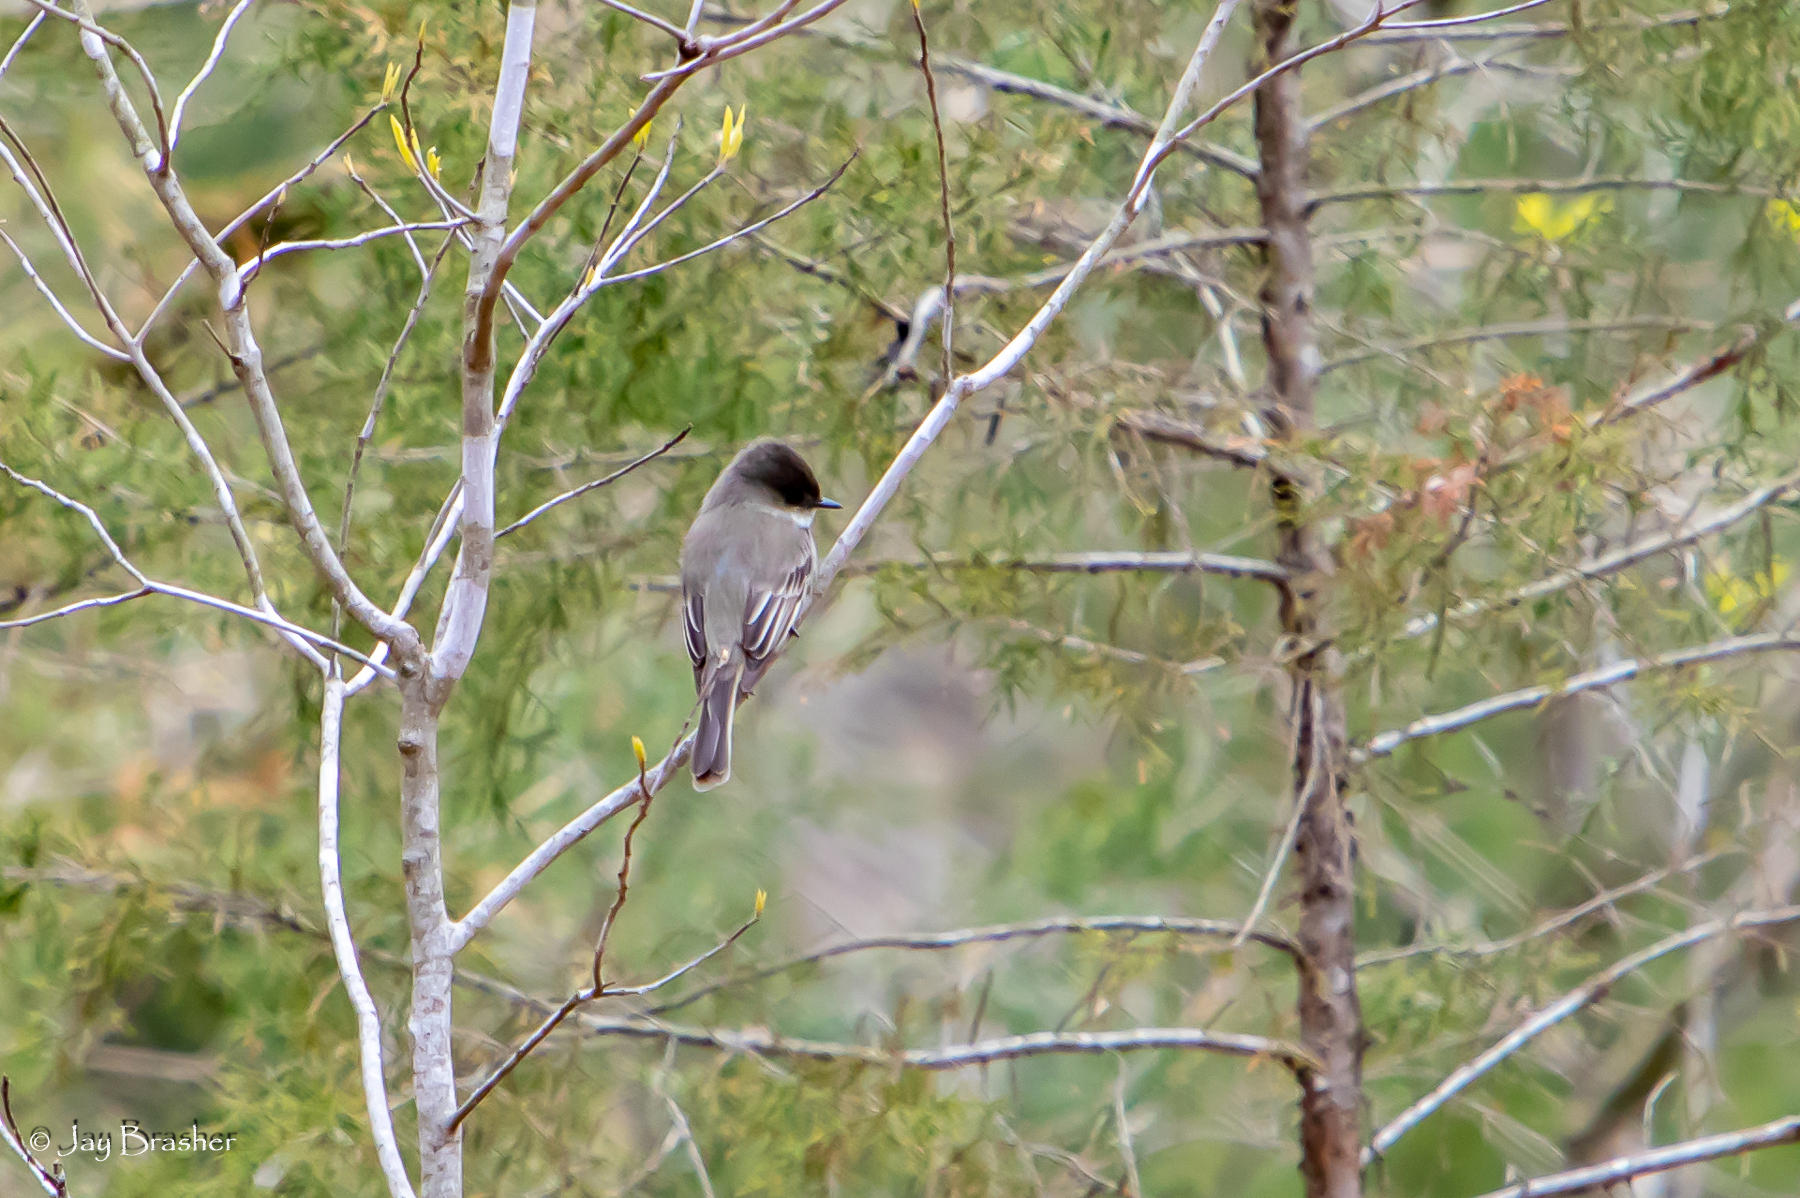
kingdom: Animalia
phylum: Chordata
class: Aves
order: Passeriformes
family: Tyrannidae
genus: Sayornis
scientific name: Sayornis phoebe
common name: Eastern phoebe
